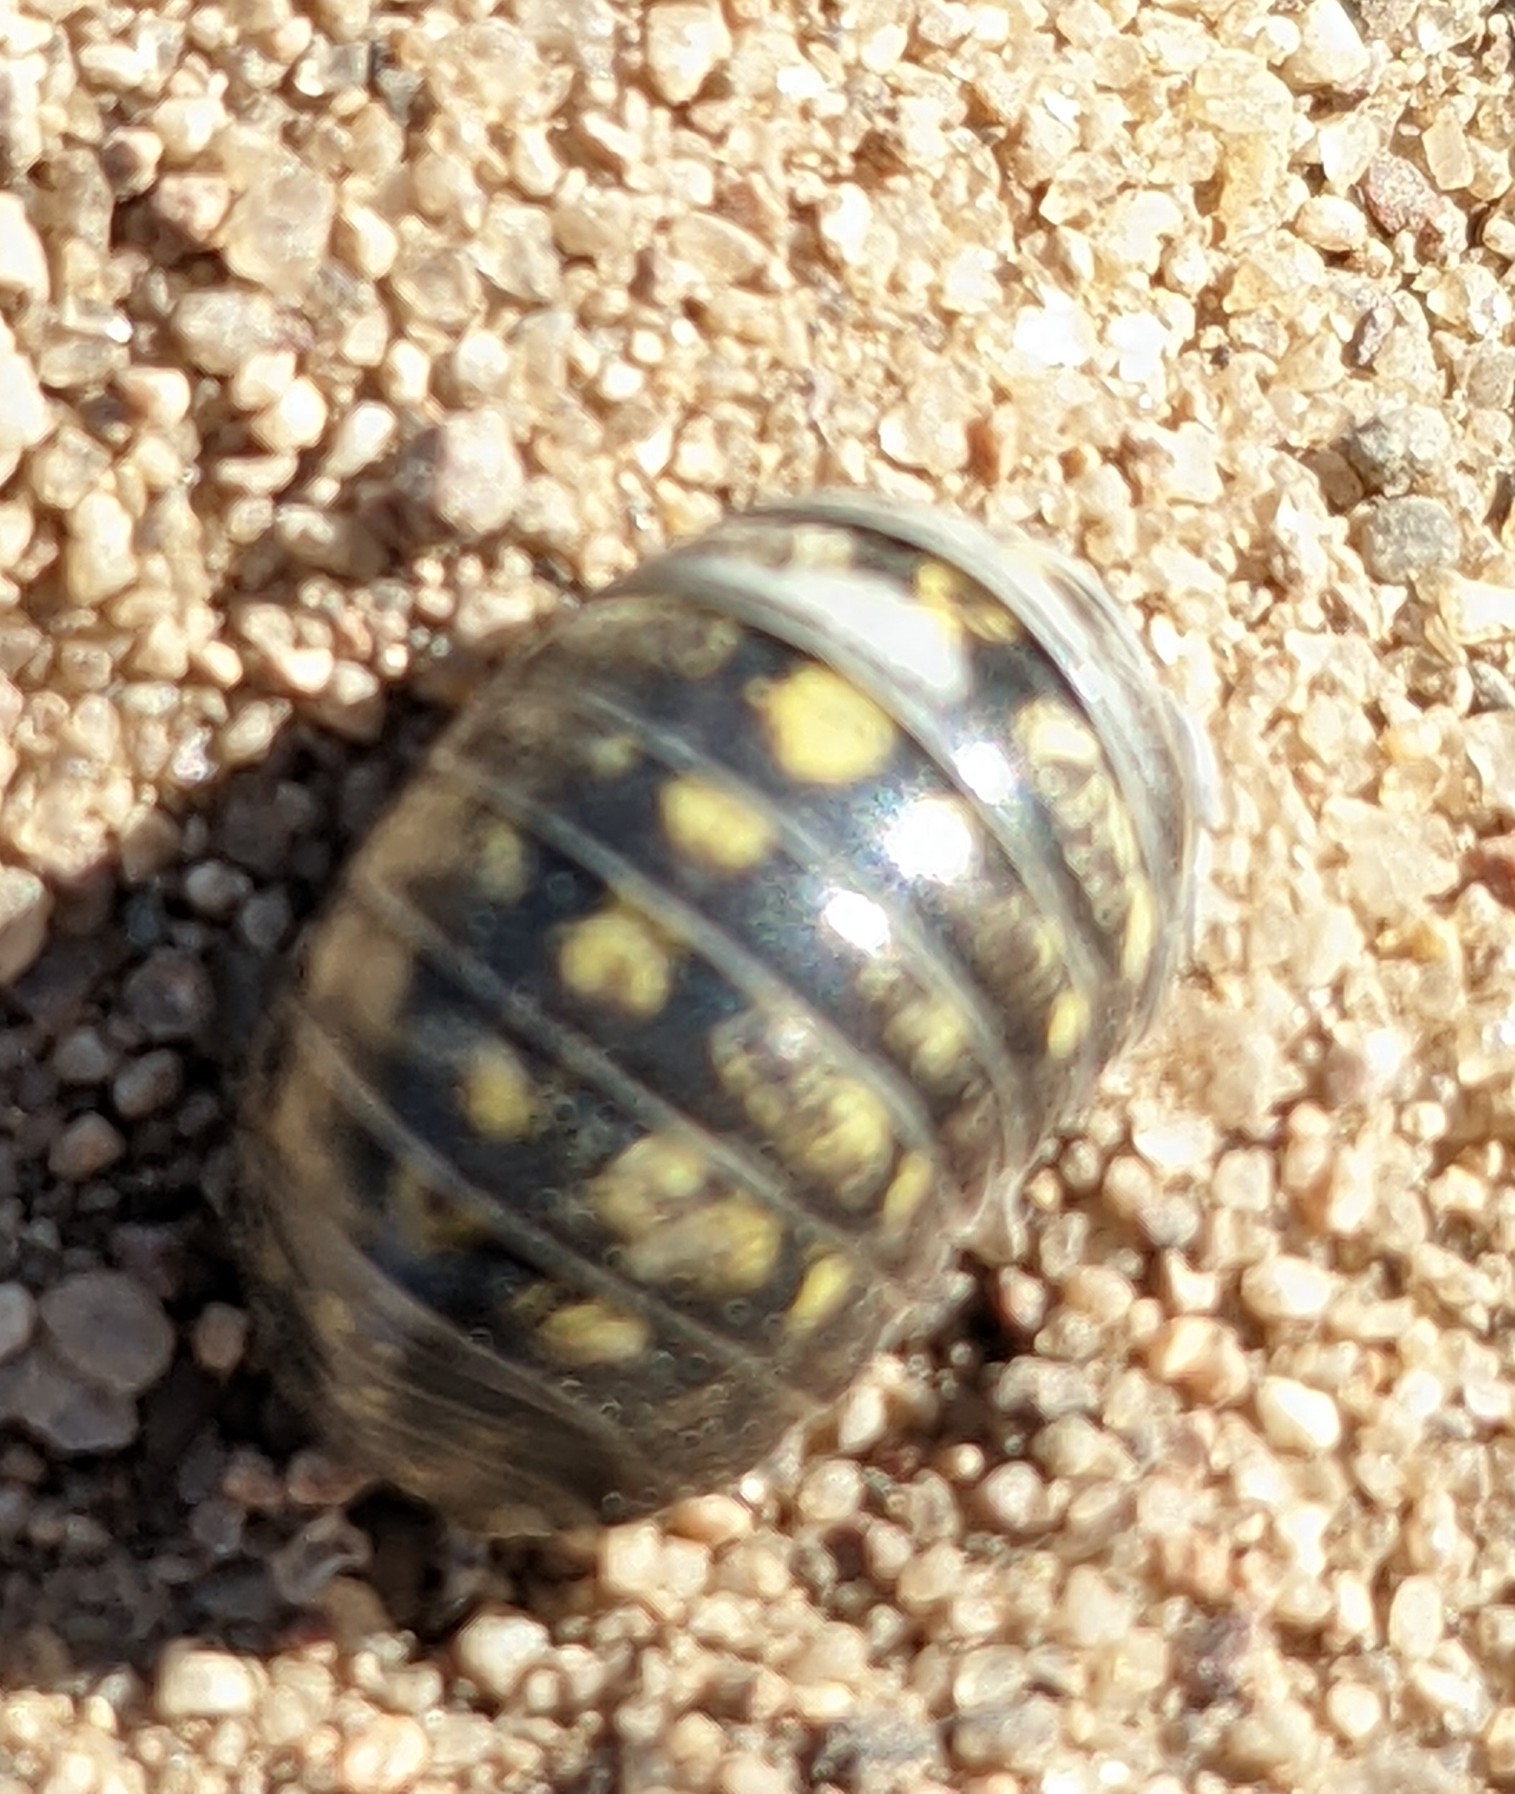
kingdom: Animalia
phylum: Arthropoda
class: Malacostraca
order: Isopoda
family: Armadillidiidae
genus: Armadillidium
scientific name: Armadillidium vulgare
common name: Common pill woodlouse
